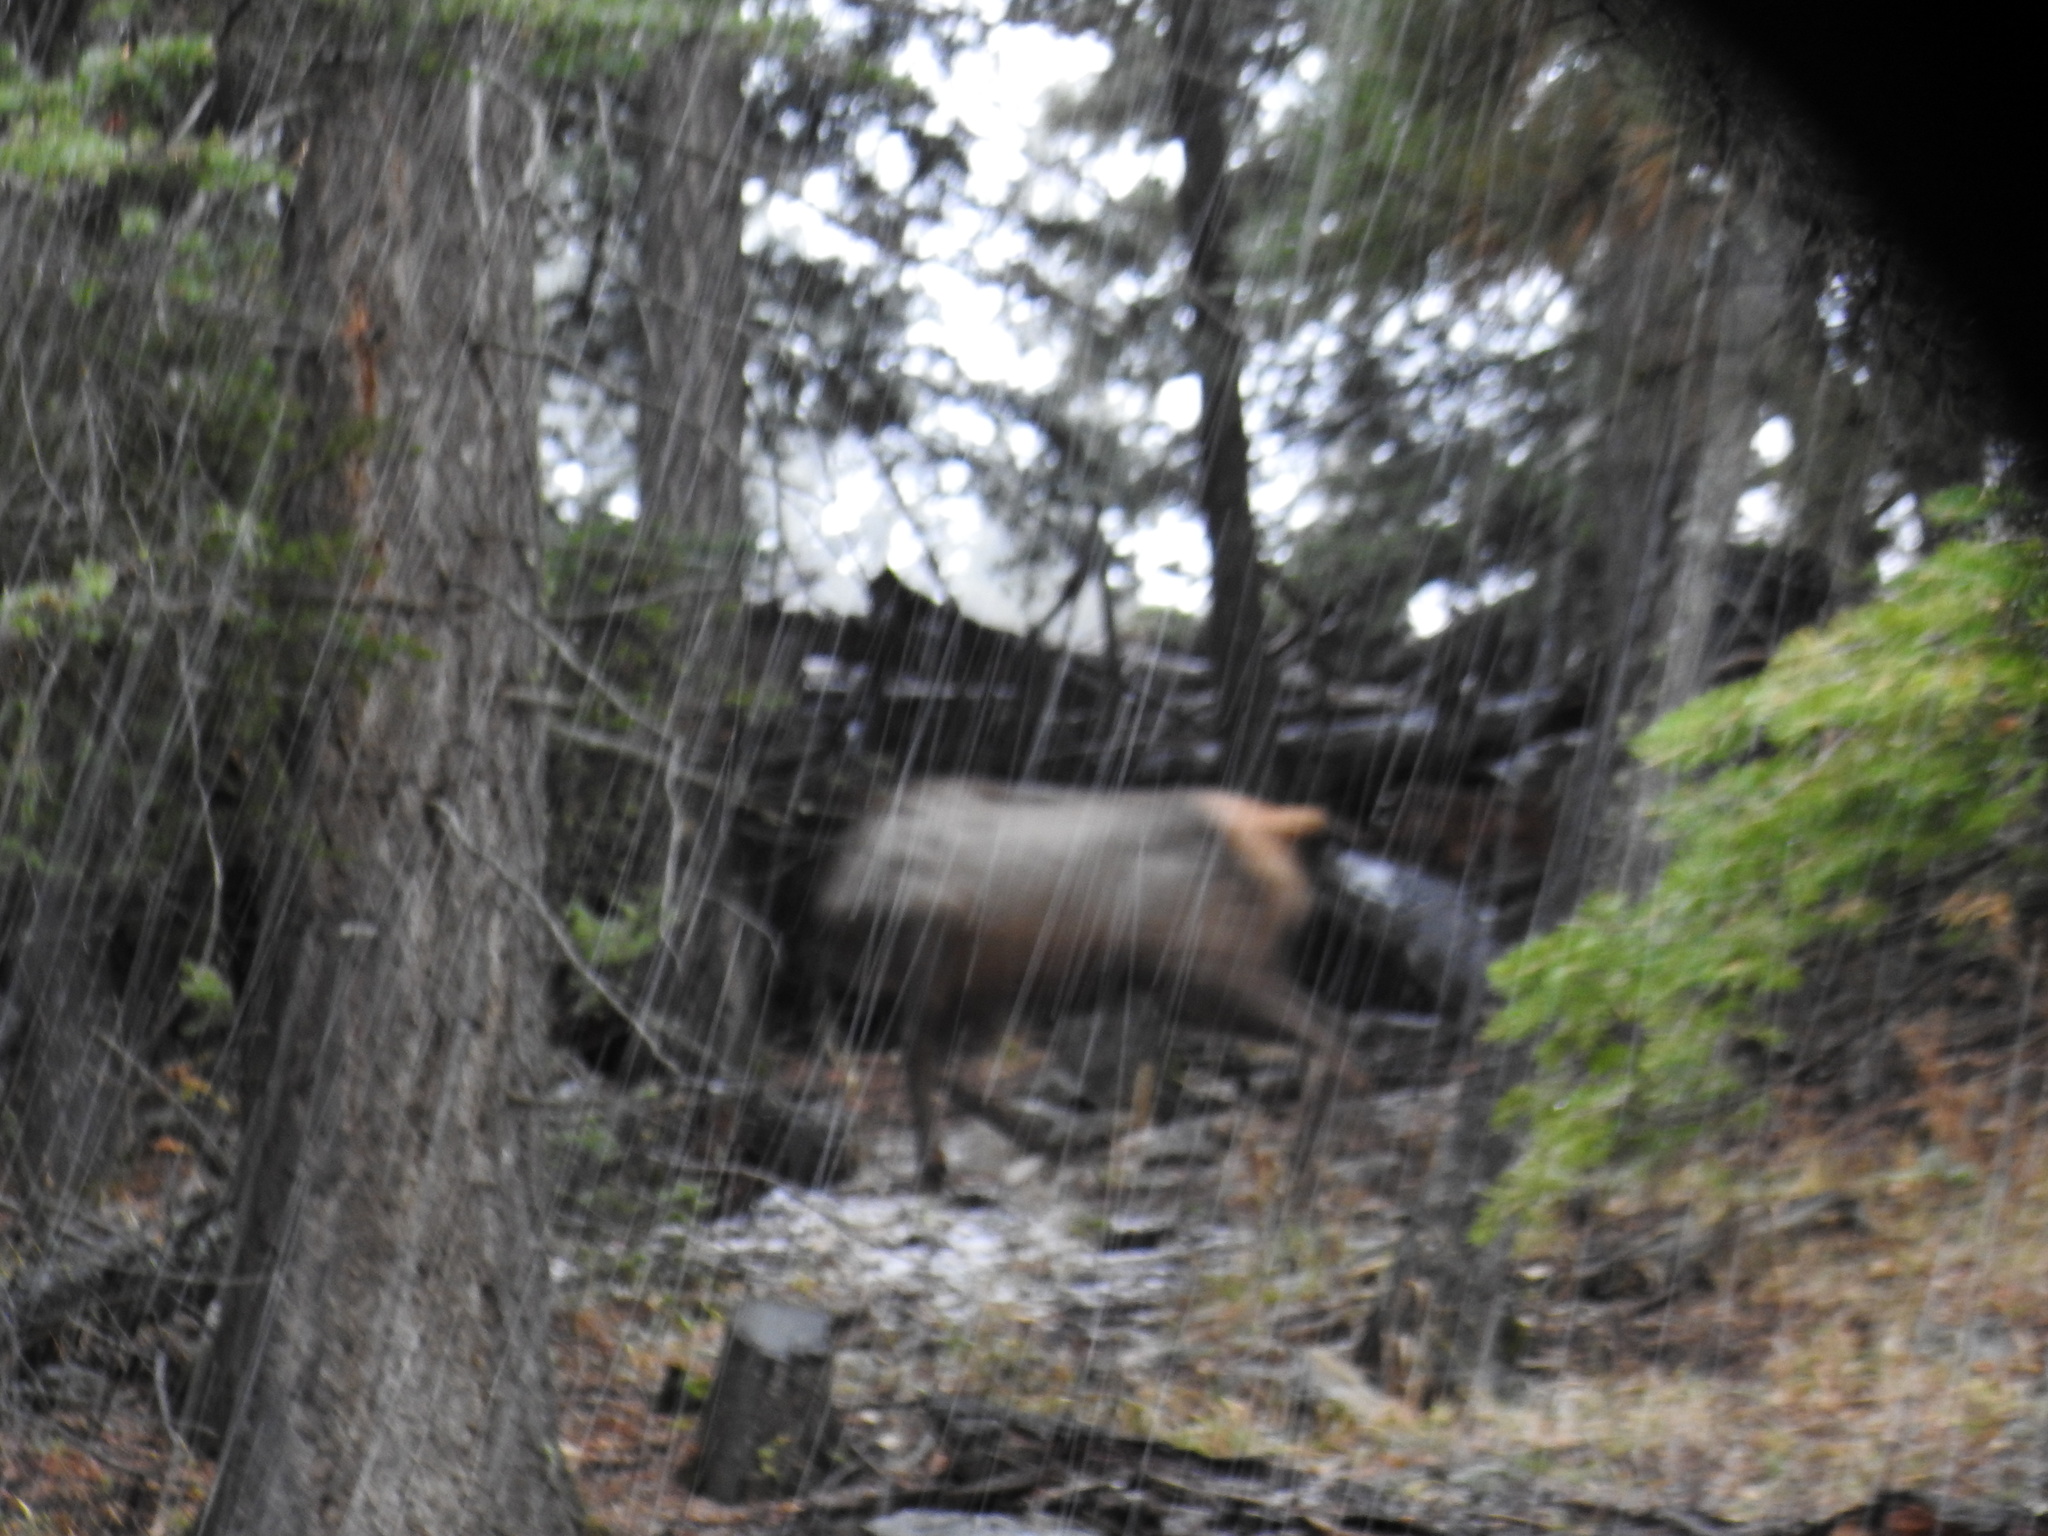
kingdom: Animalia
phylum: Chordata
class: Mammalia
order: Artiodactyla
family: Cervidae
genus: Cervus
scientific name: Cervus elaphus
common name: Red deer
